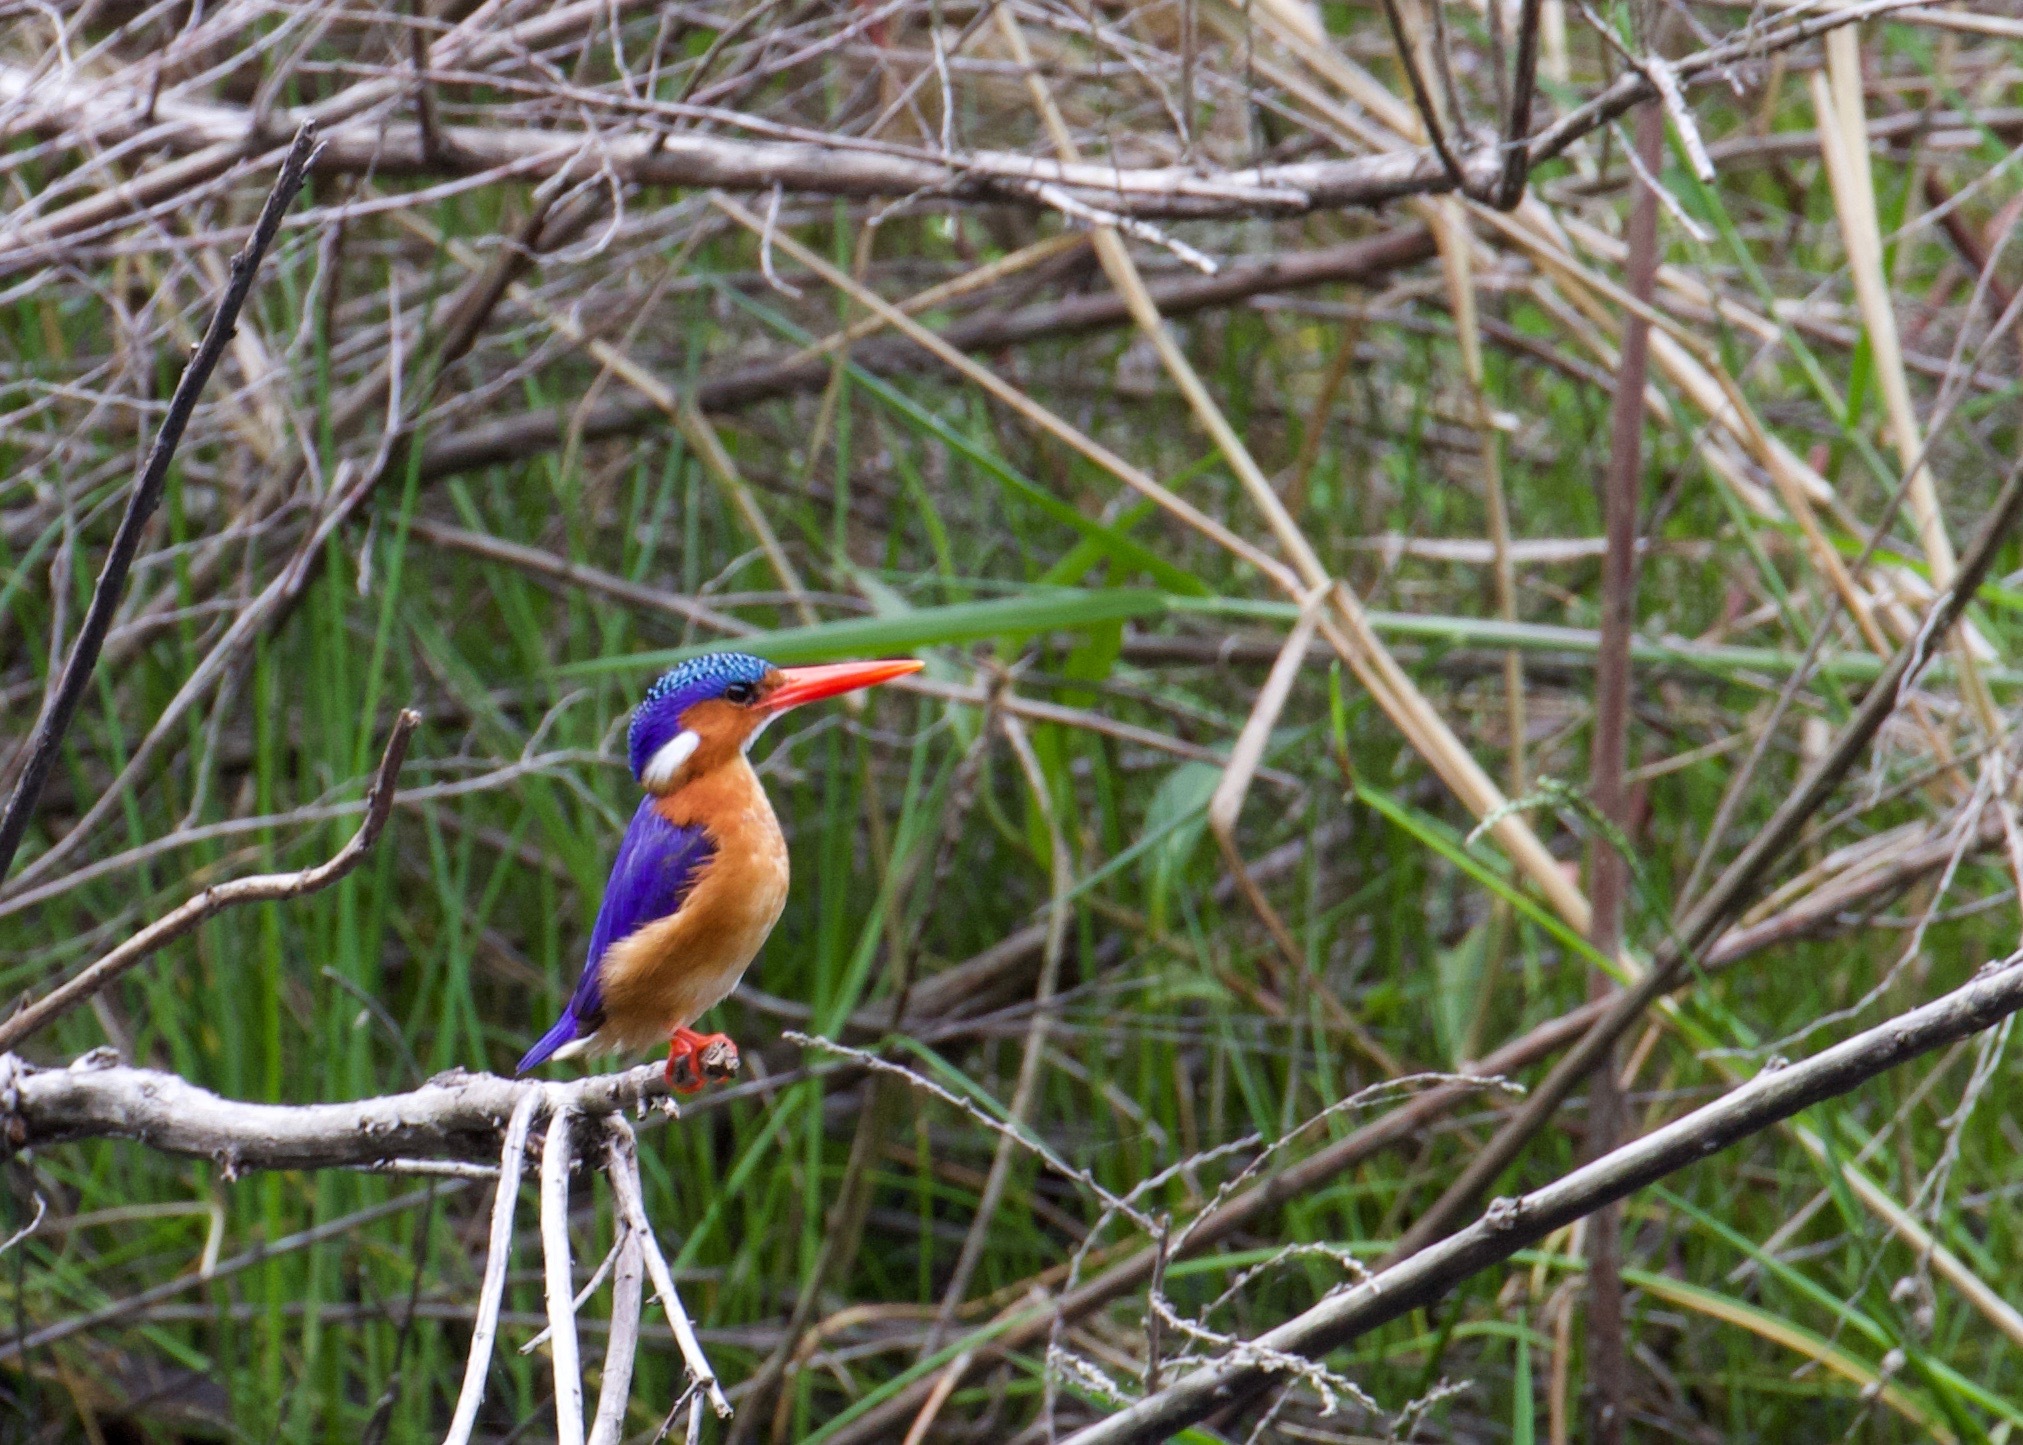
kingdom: Animalia
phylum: Chordata
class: Aves
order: Coraciiformes
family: Alcedinidae
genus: Corythornis
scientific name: Corythornis cristatus
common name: Malachite kingfisher
